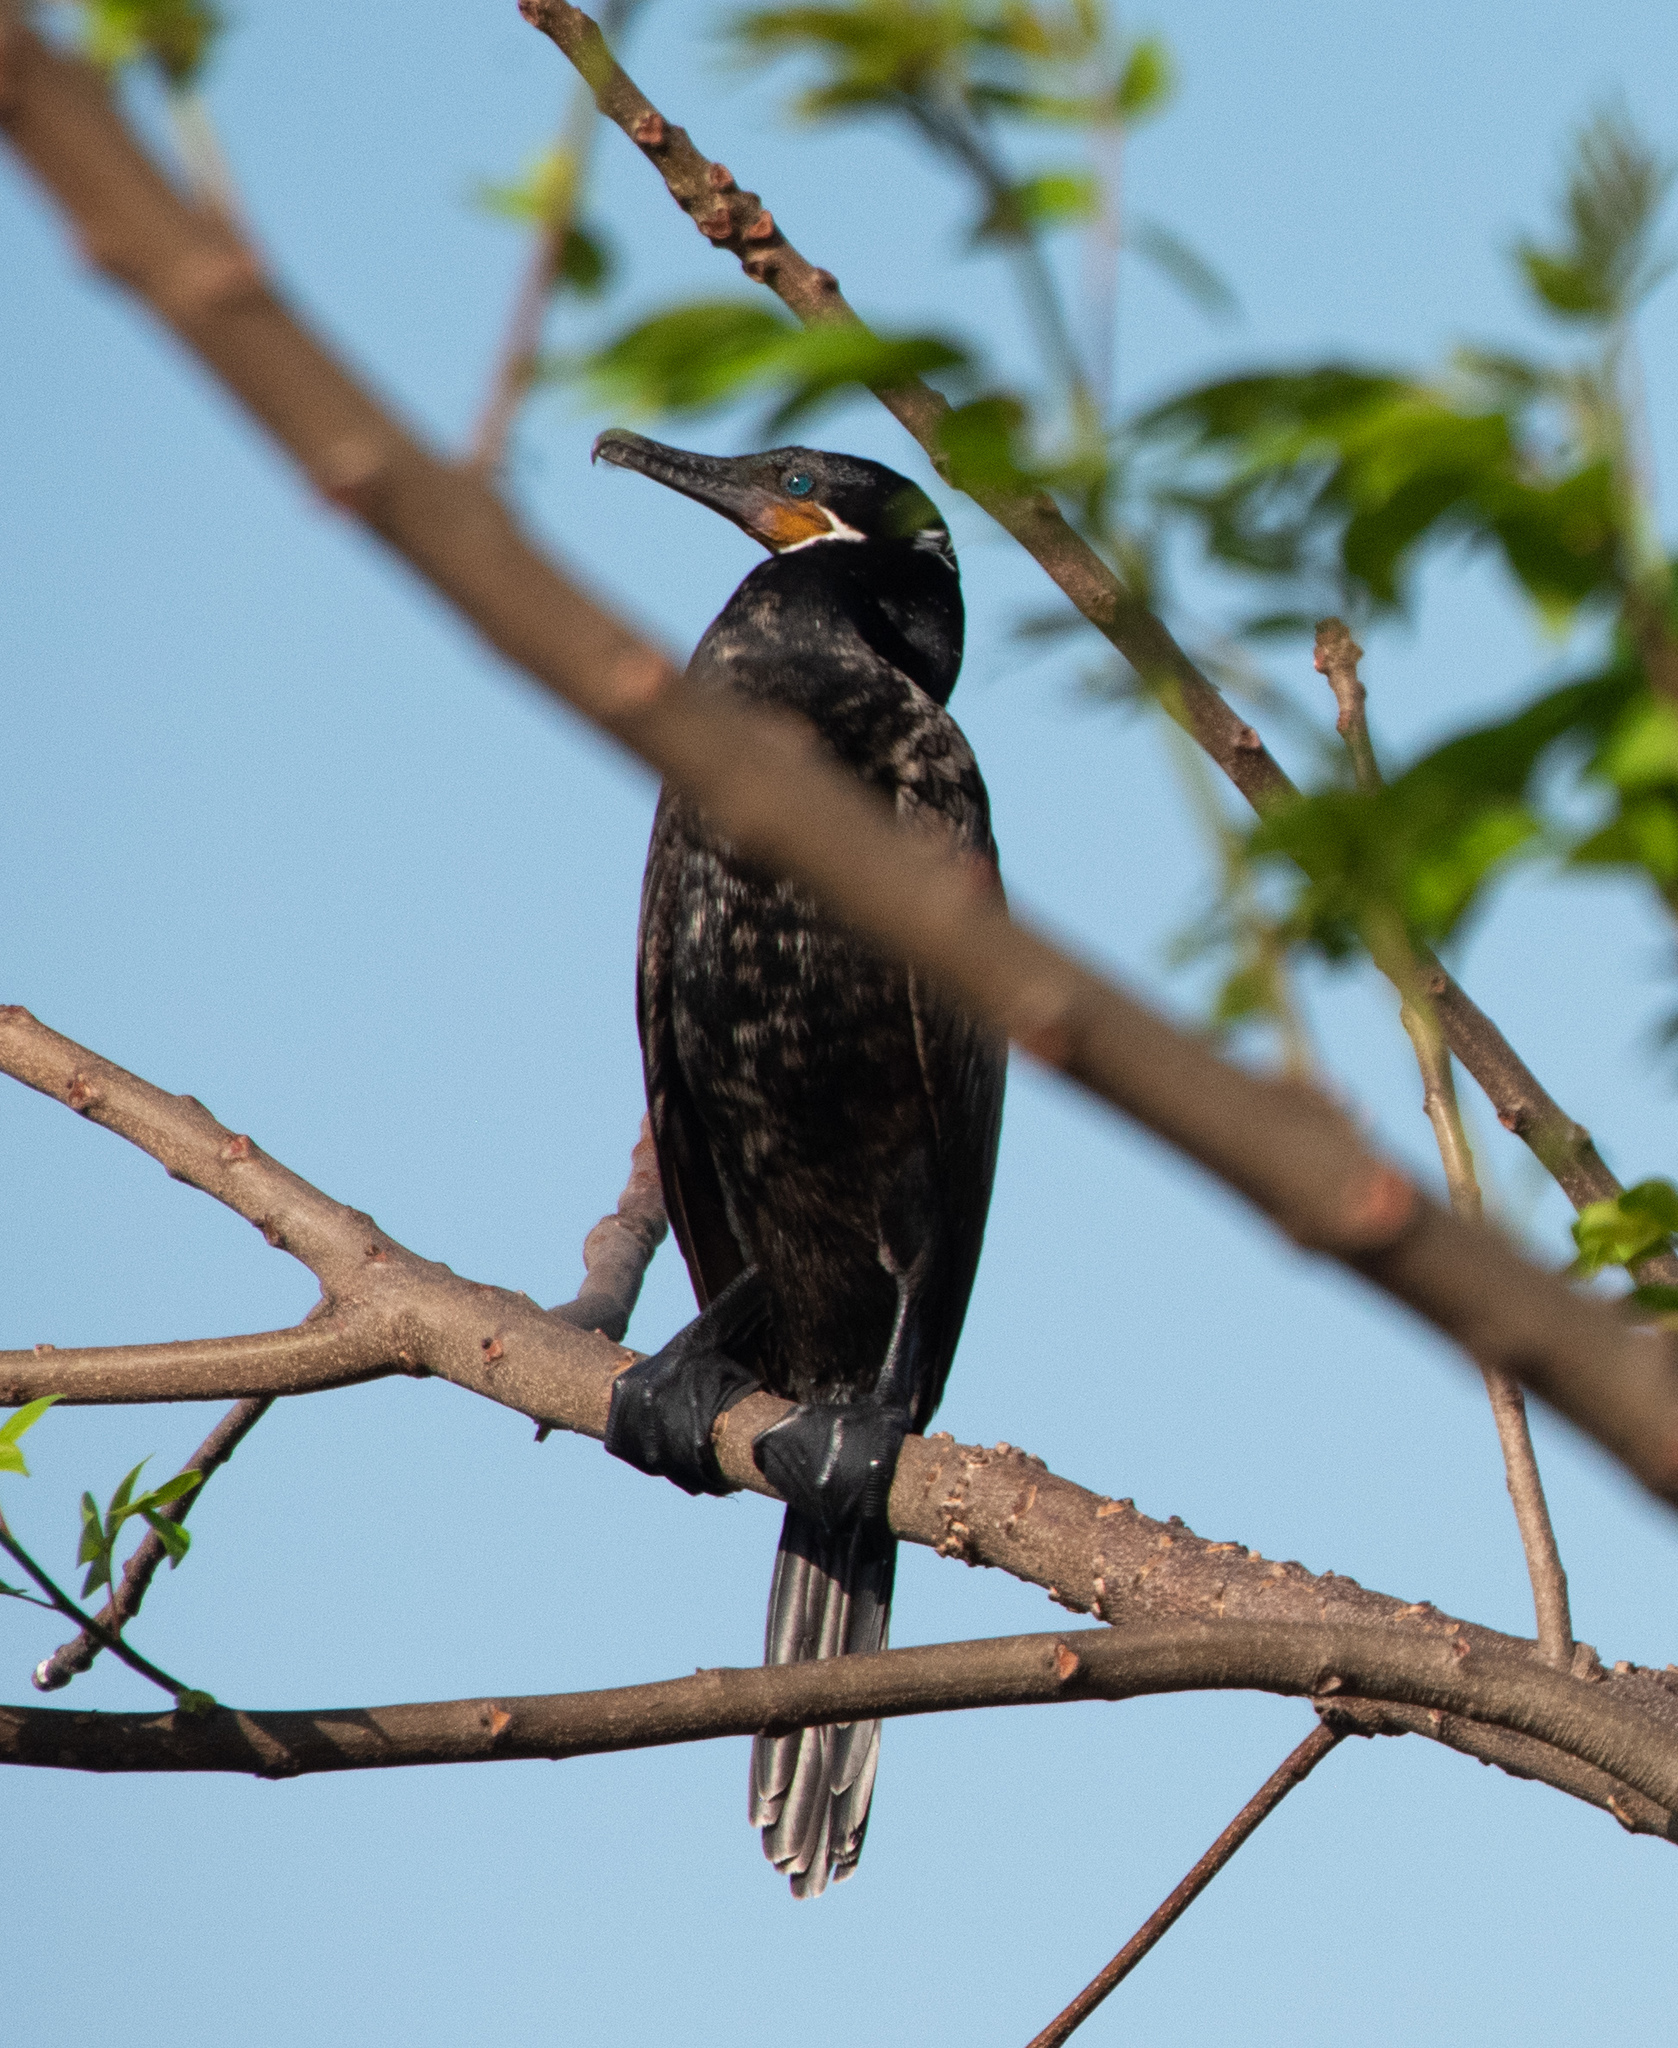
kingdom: Animalia
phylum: Chordata
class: Aves
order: Suliformes
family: Phalacrocoracidae
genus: Phalacrocorax
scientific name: Phalacrocorax brasilianus
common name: Neotropic cormorant
